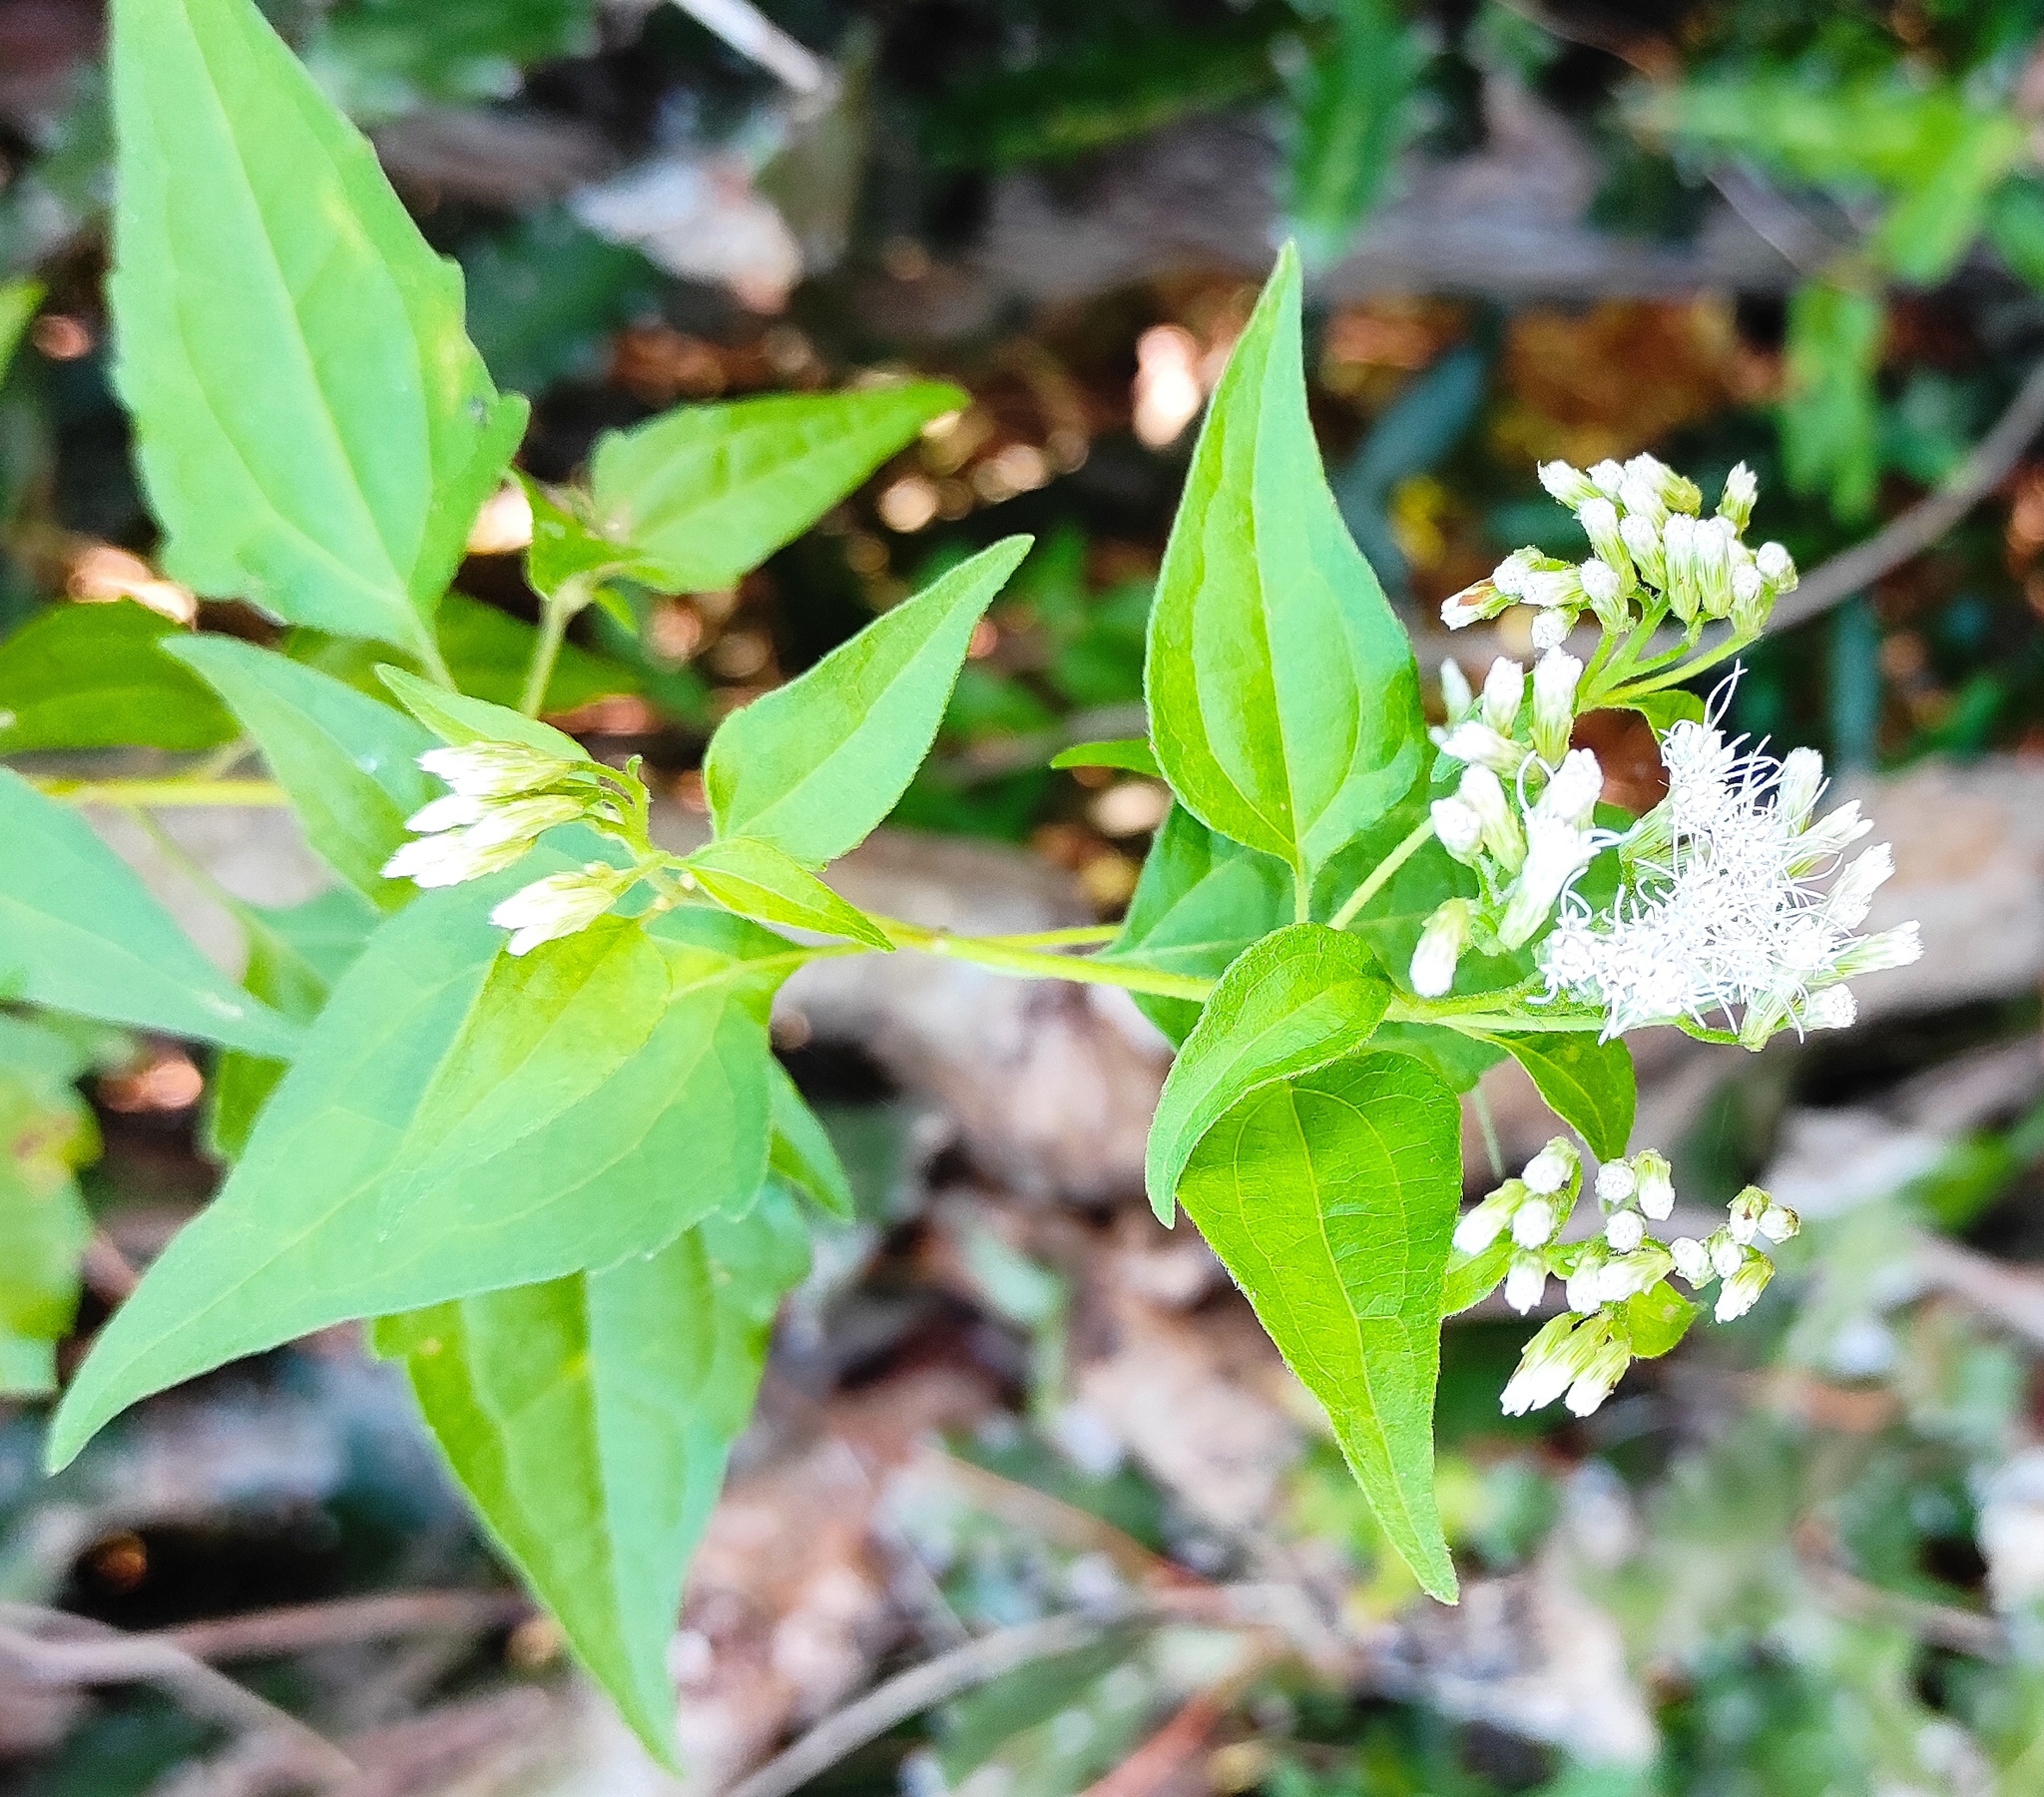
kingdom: Plantae
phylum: Tracheophyta
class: Magnoliopsida
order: Asterales
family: Asteraceae
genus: Chromolaena
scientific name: Chromolaena odorata
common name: Siamweed
